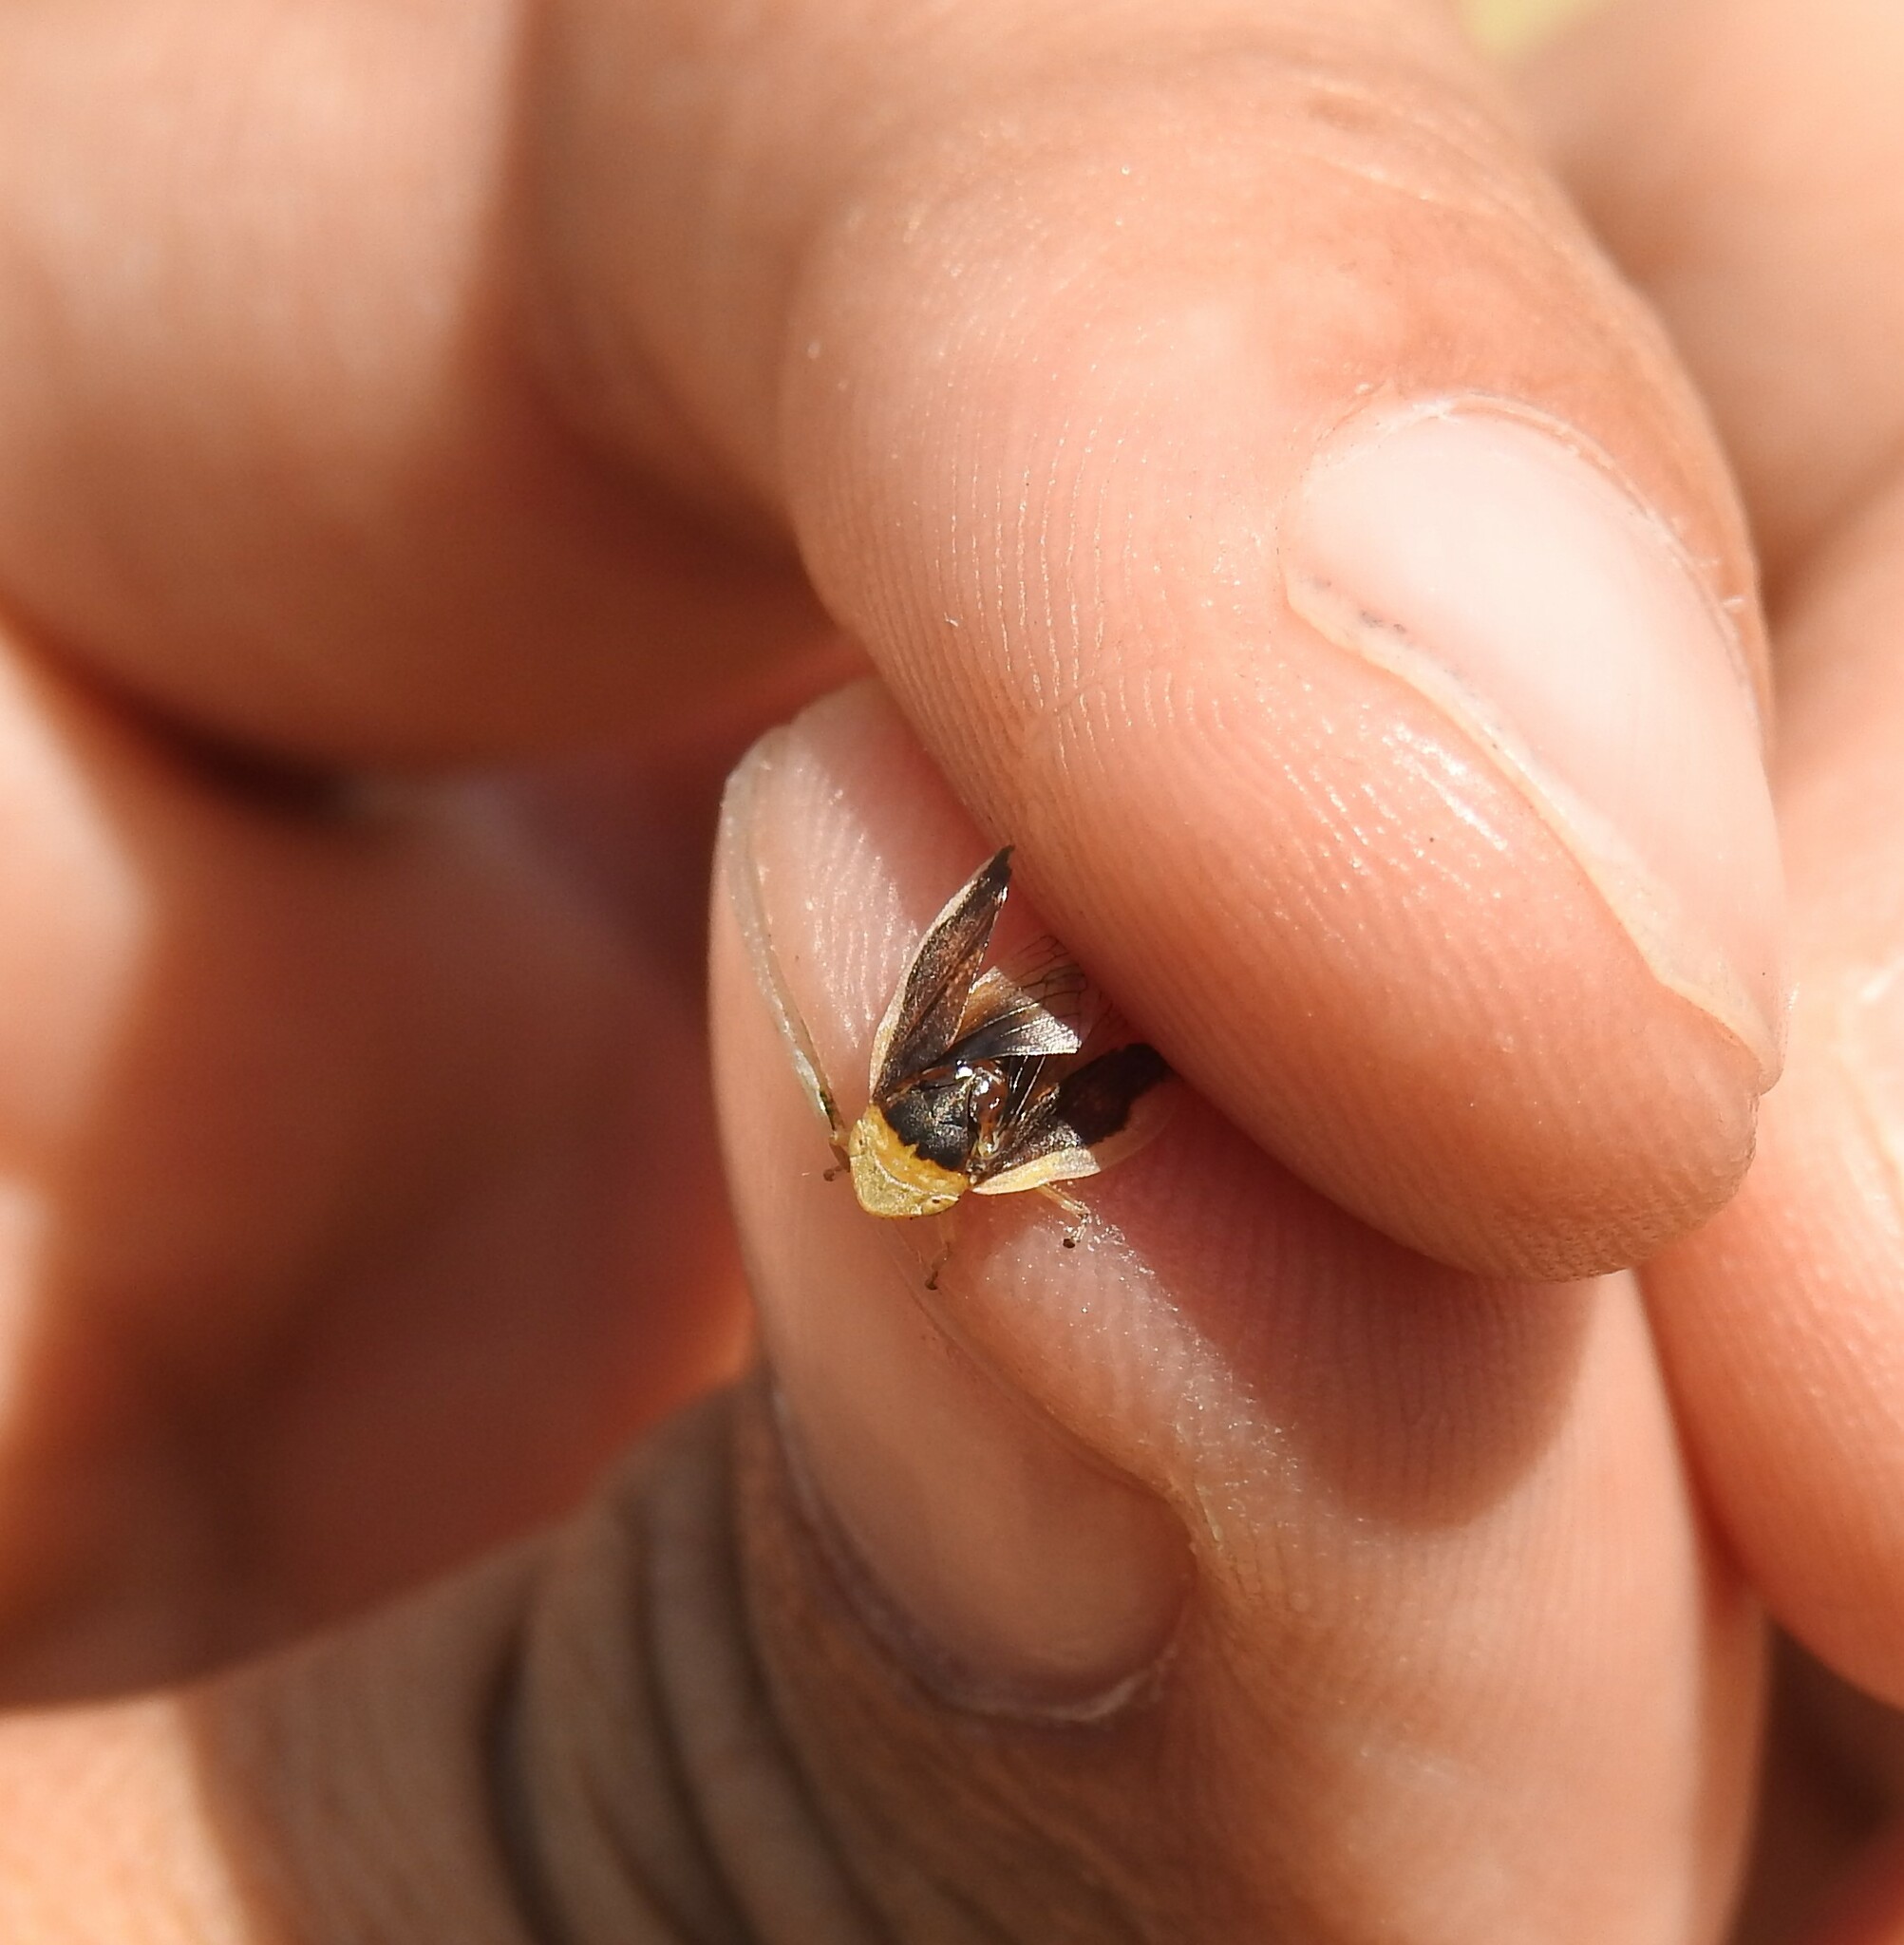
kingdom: Animalia
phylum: Arthropoda
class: Insecta
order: Hemiptera
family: Aphrophoridae
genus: Philaenus
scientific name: Philaenus spumarius
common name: Meadow spittlebug
